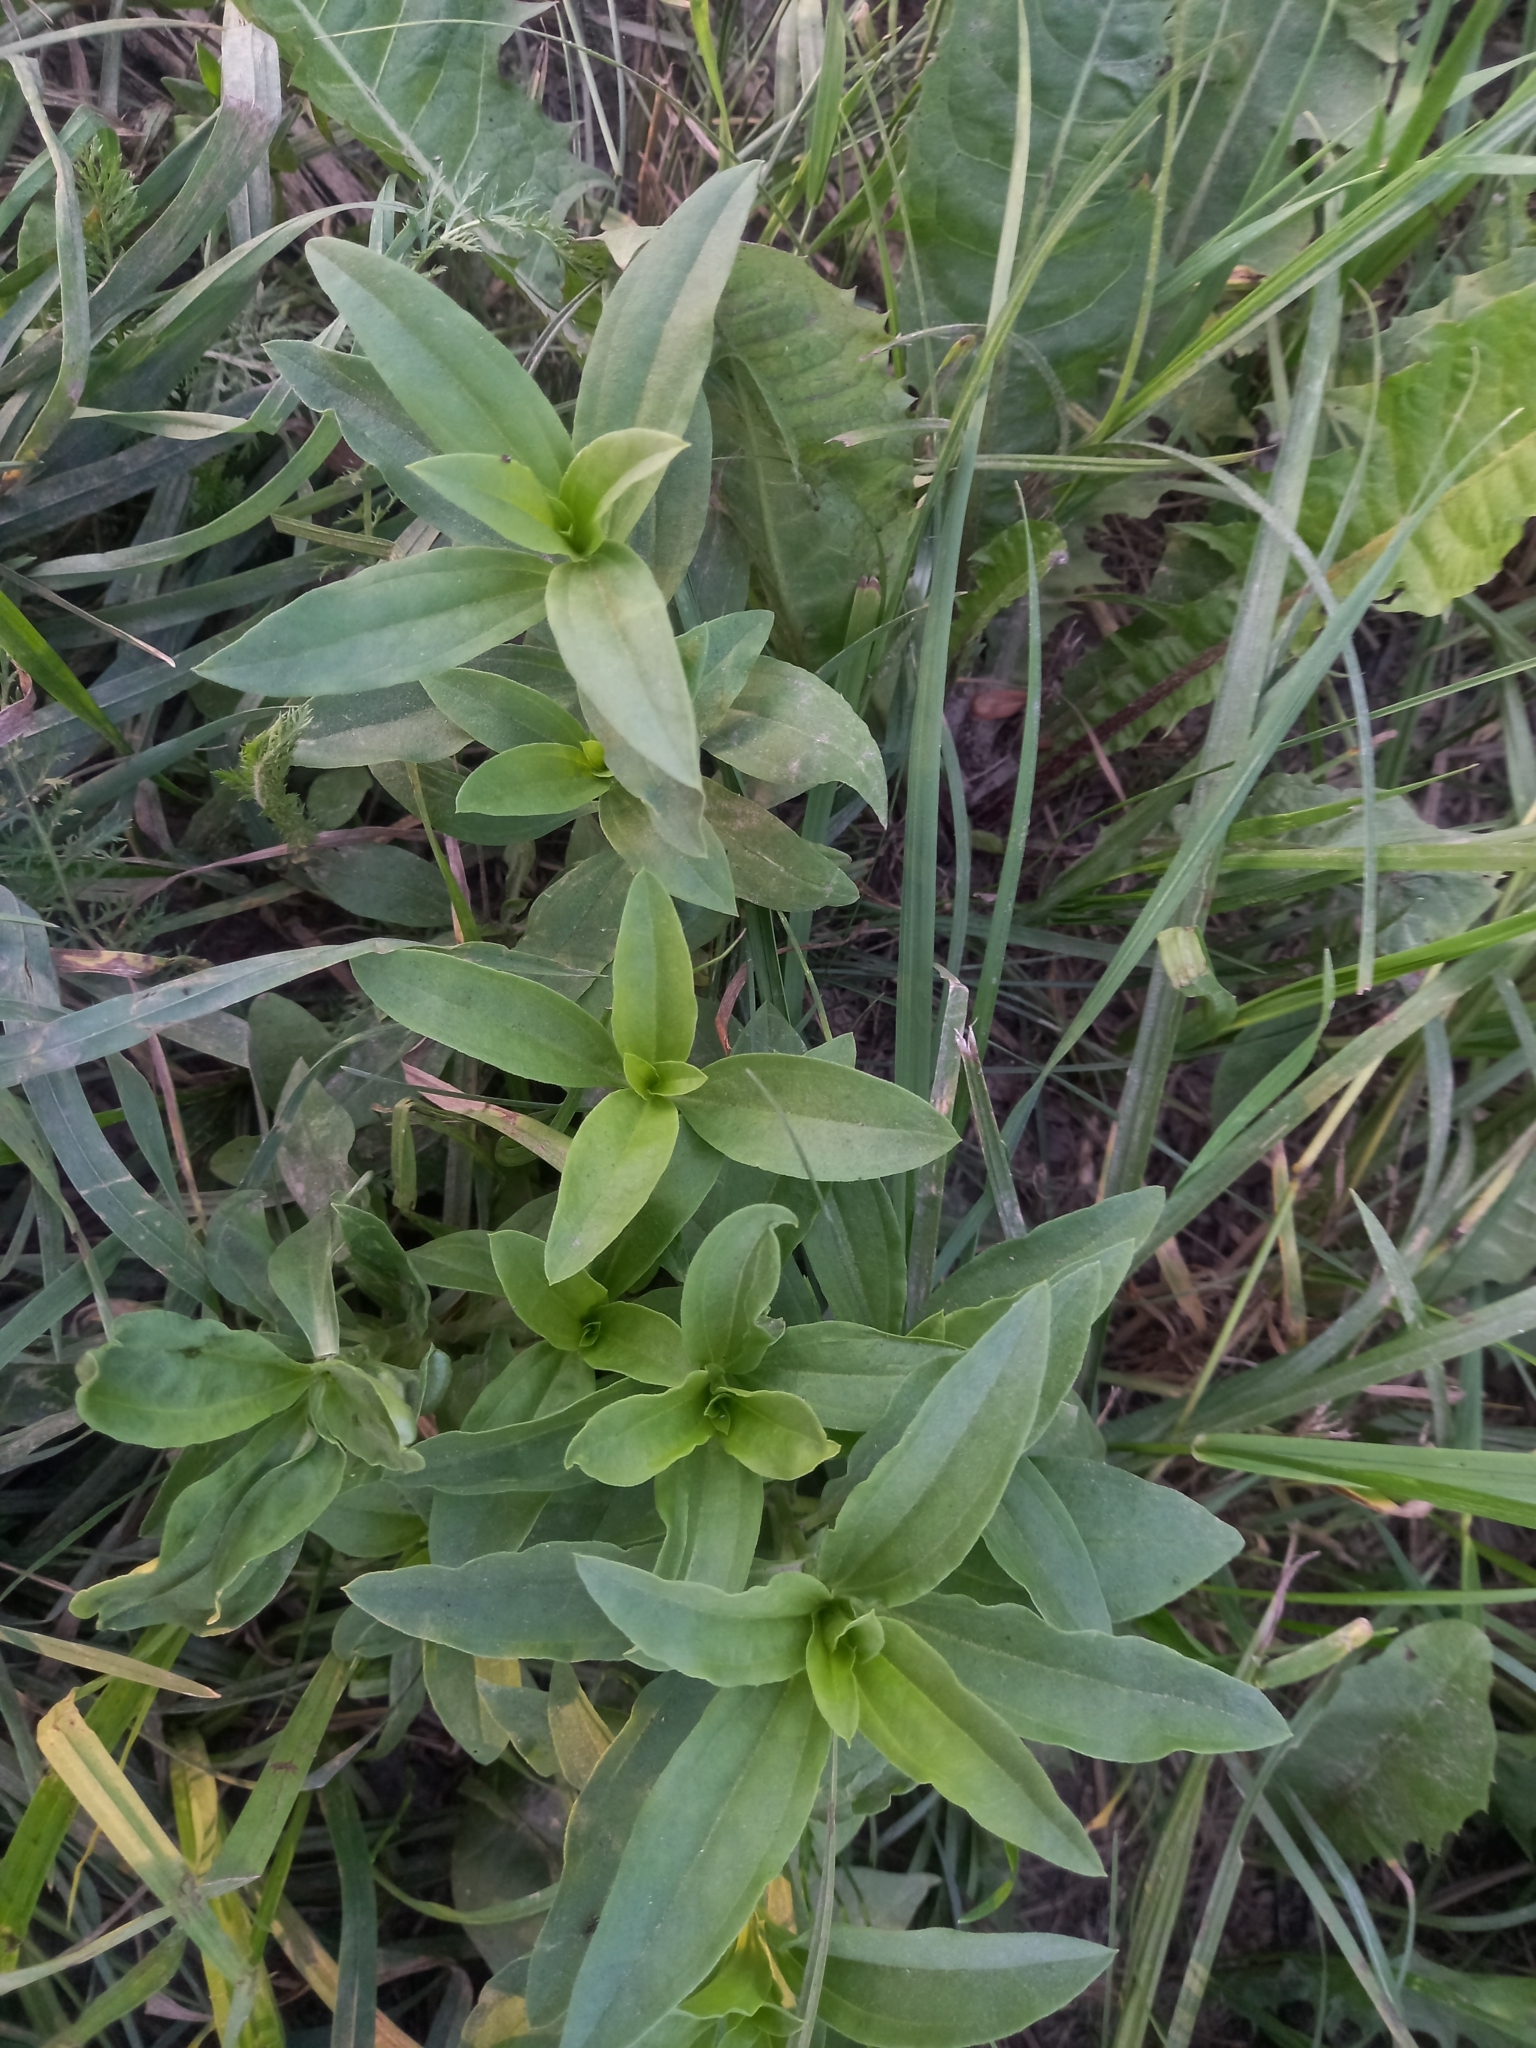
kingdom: Plantae
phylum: Tracheophyta
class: Magnoliopsida
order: Caryophyllales
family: Caryophyllaceae
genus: Saponaria
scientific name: Saponaria officinalis
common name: Soapwort
